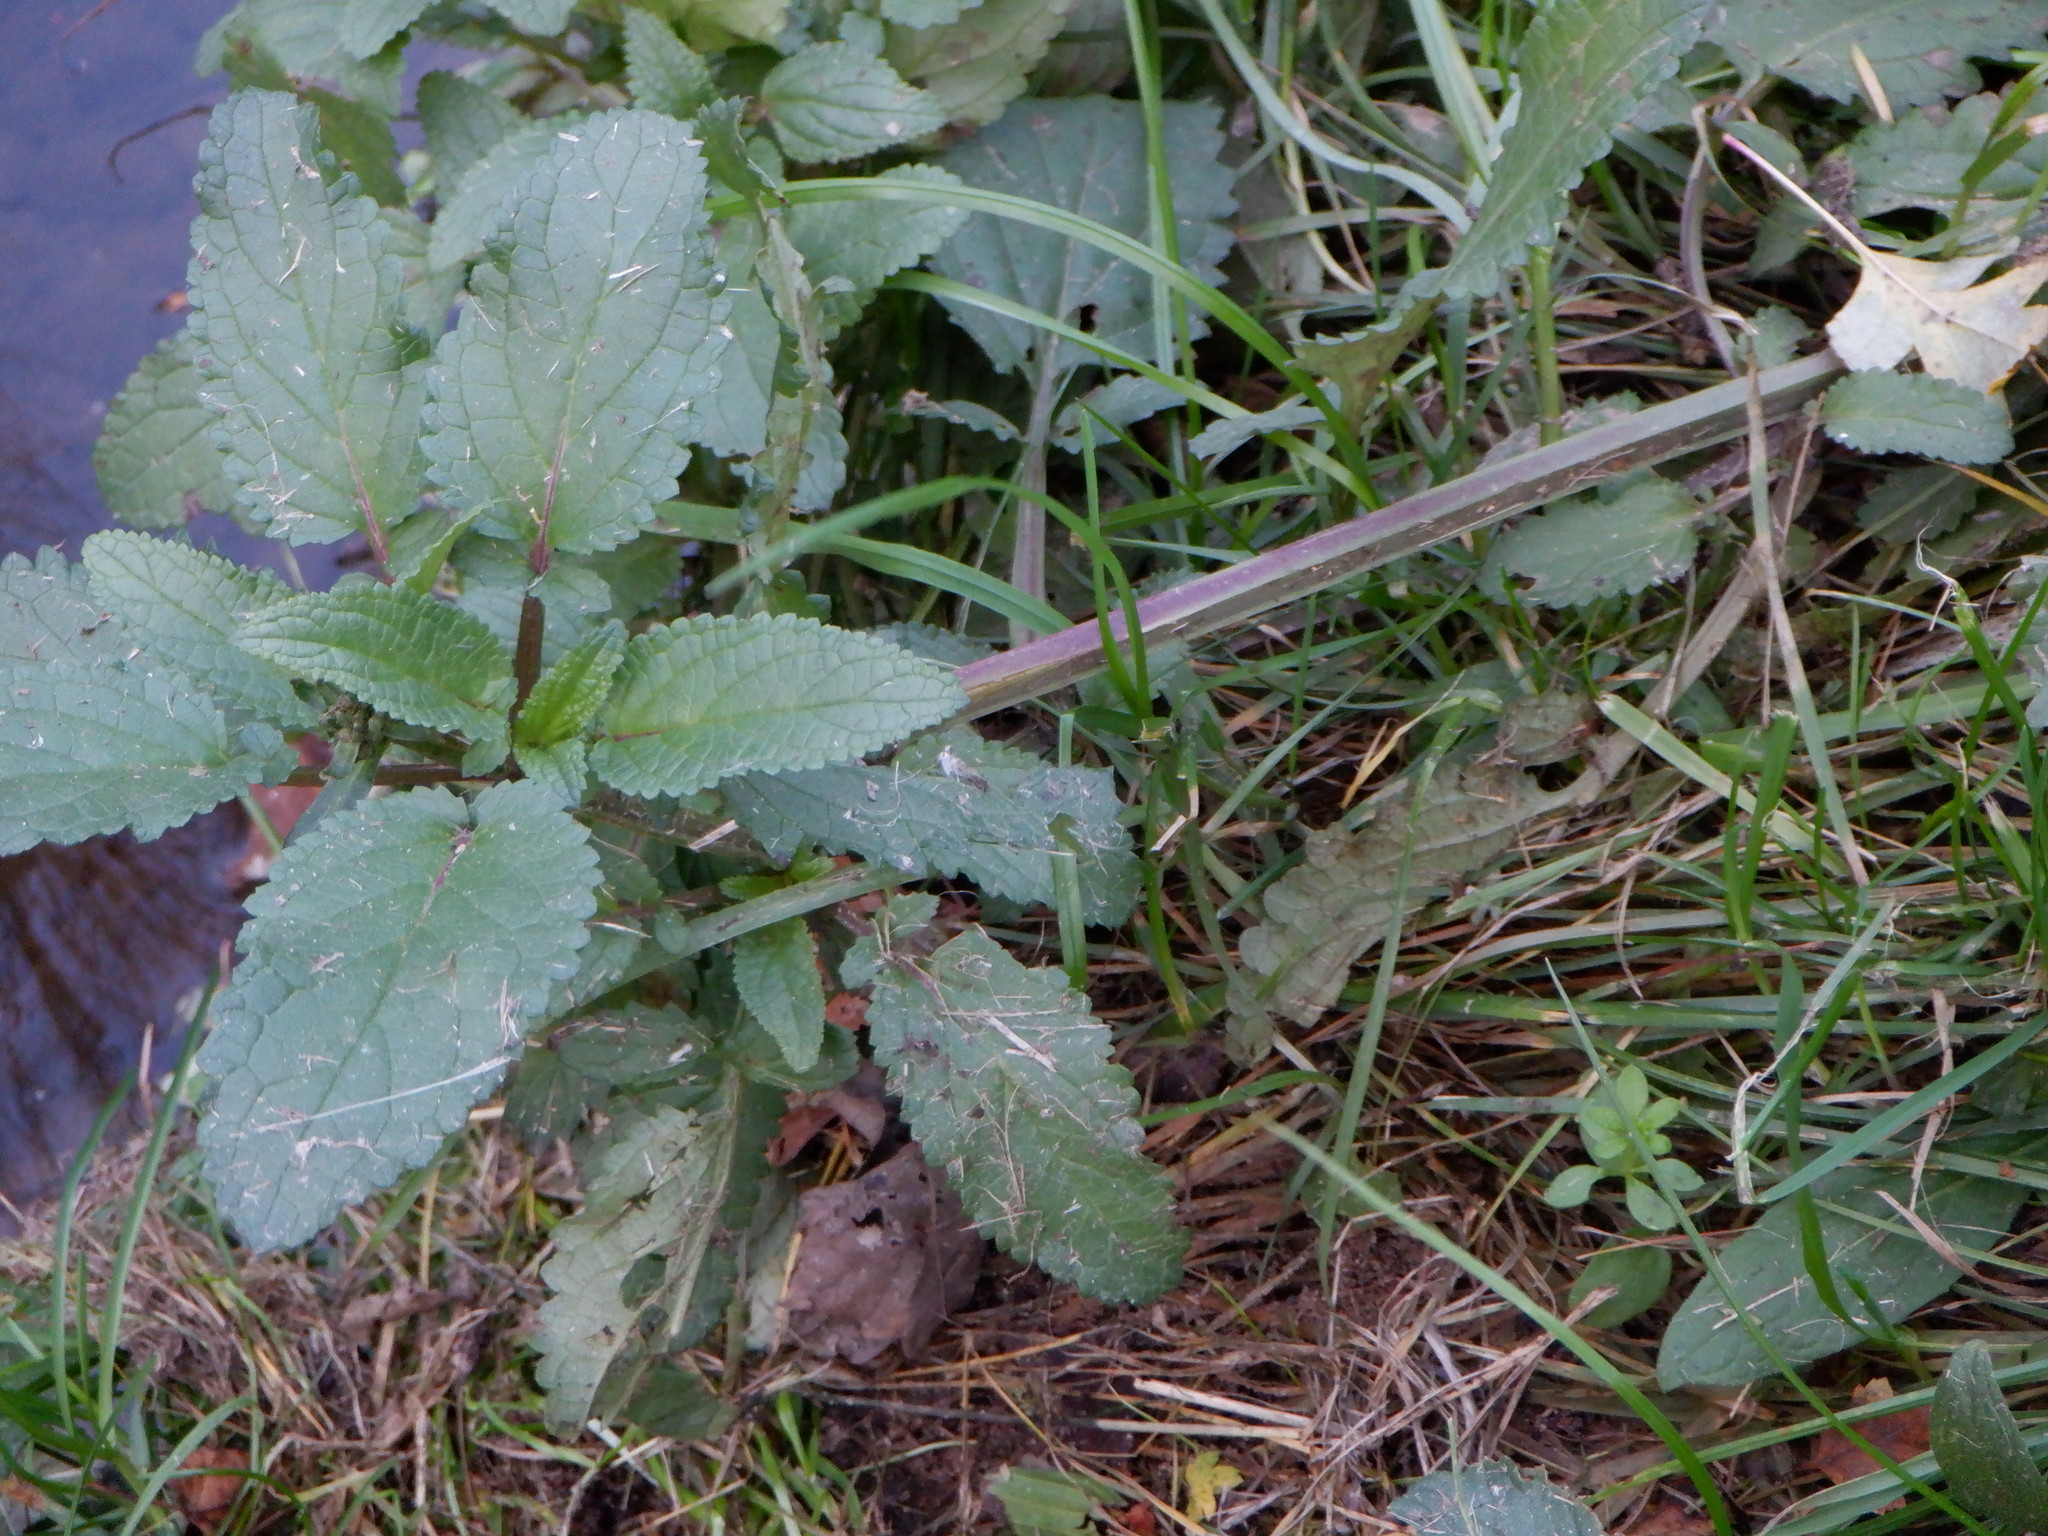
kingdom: Plantae
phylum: Tracheophyta
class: Magnoliopsida
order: Lamiales
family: Scrophulariaceae
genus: Scrophularia
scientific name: Scrophularia auriculata
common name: Water betony
